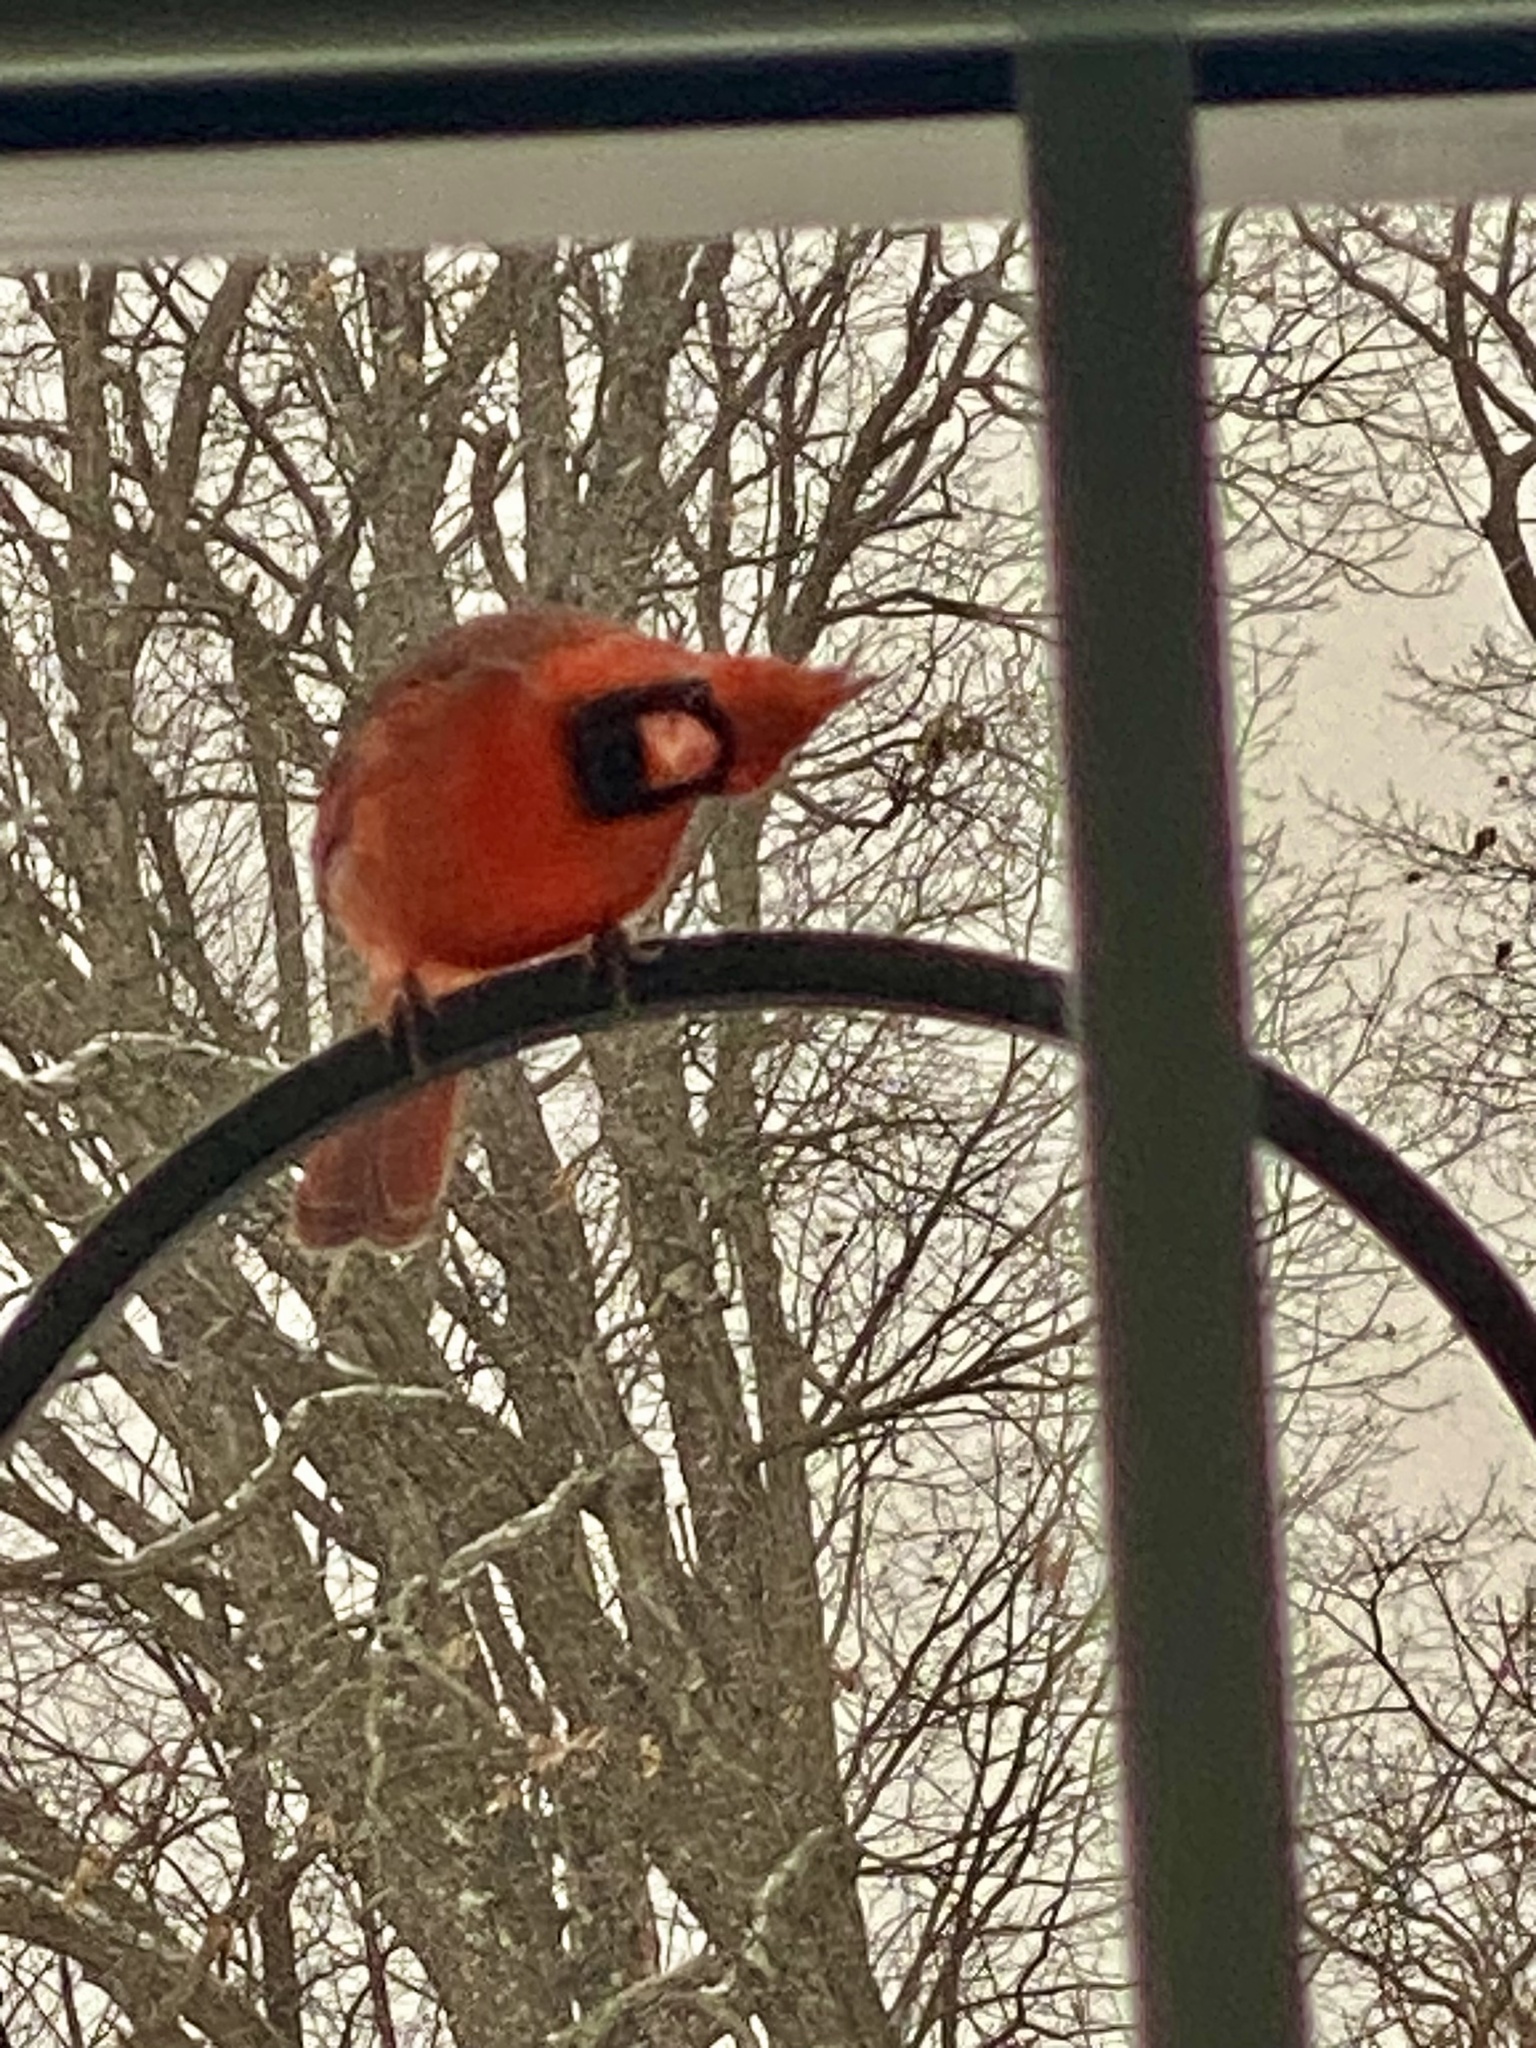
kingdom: Animalia
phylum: Chordata
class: Aves
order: Passeriformes
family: Cardinalidae
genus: Cardinalis
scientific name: Cardinalis cardinalis
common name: Northern cardinal
